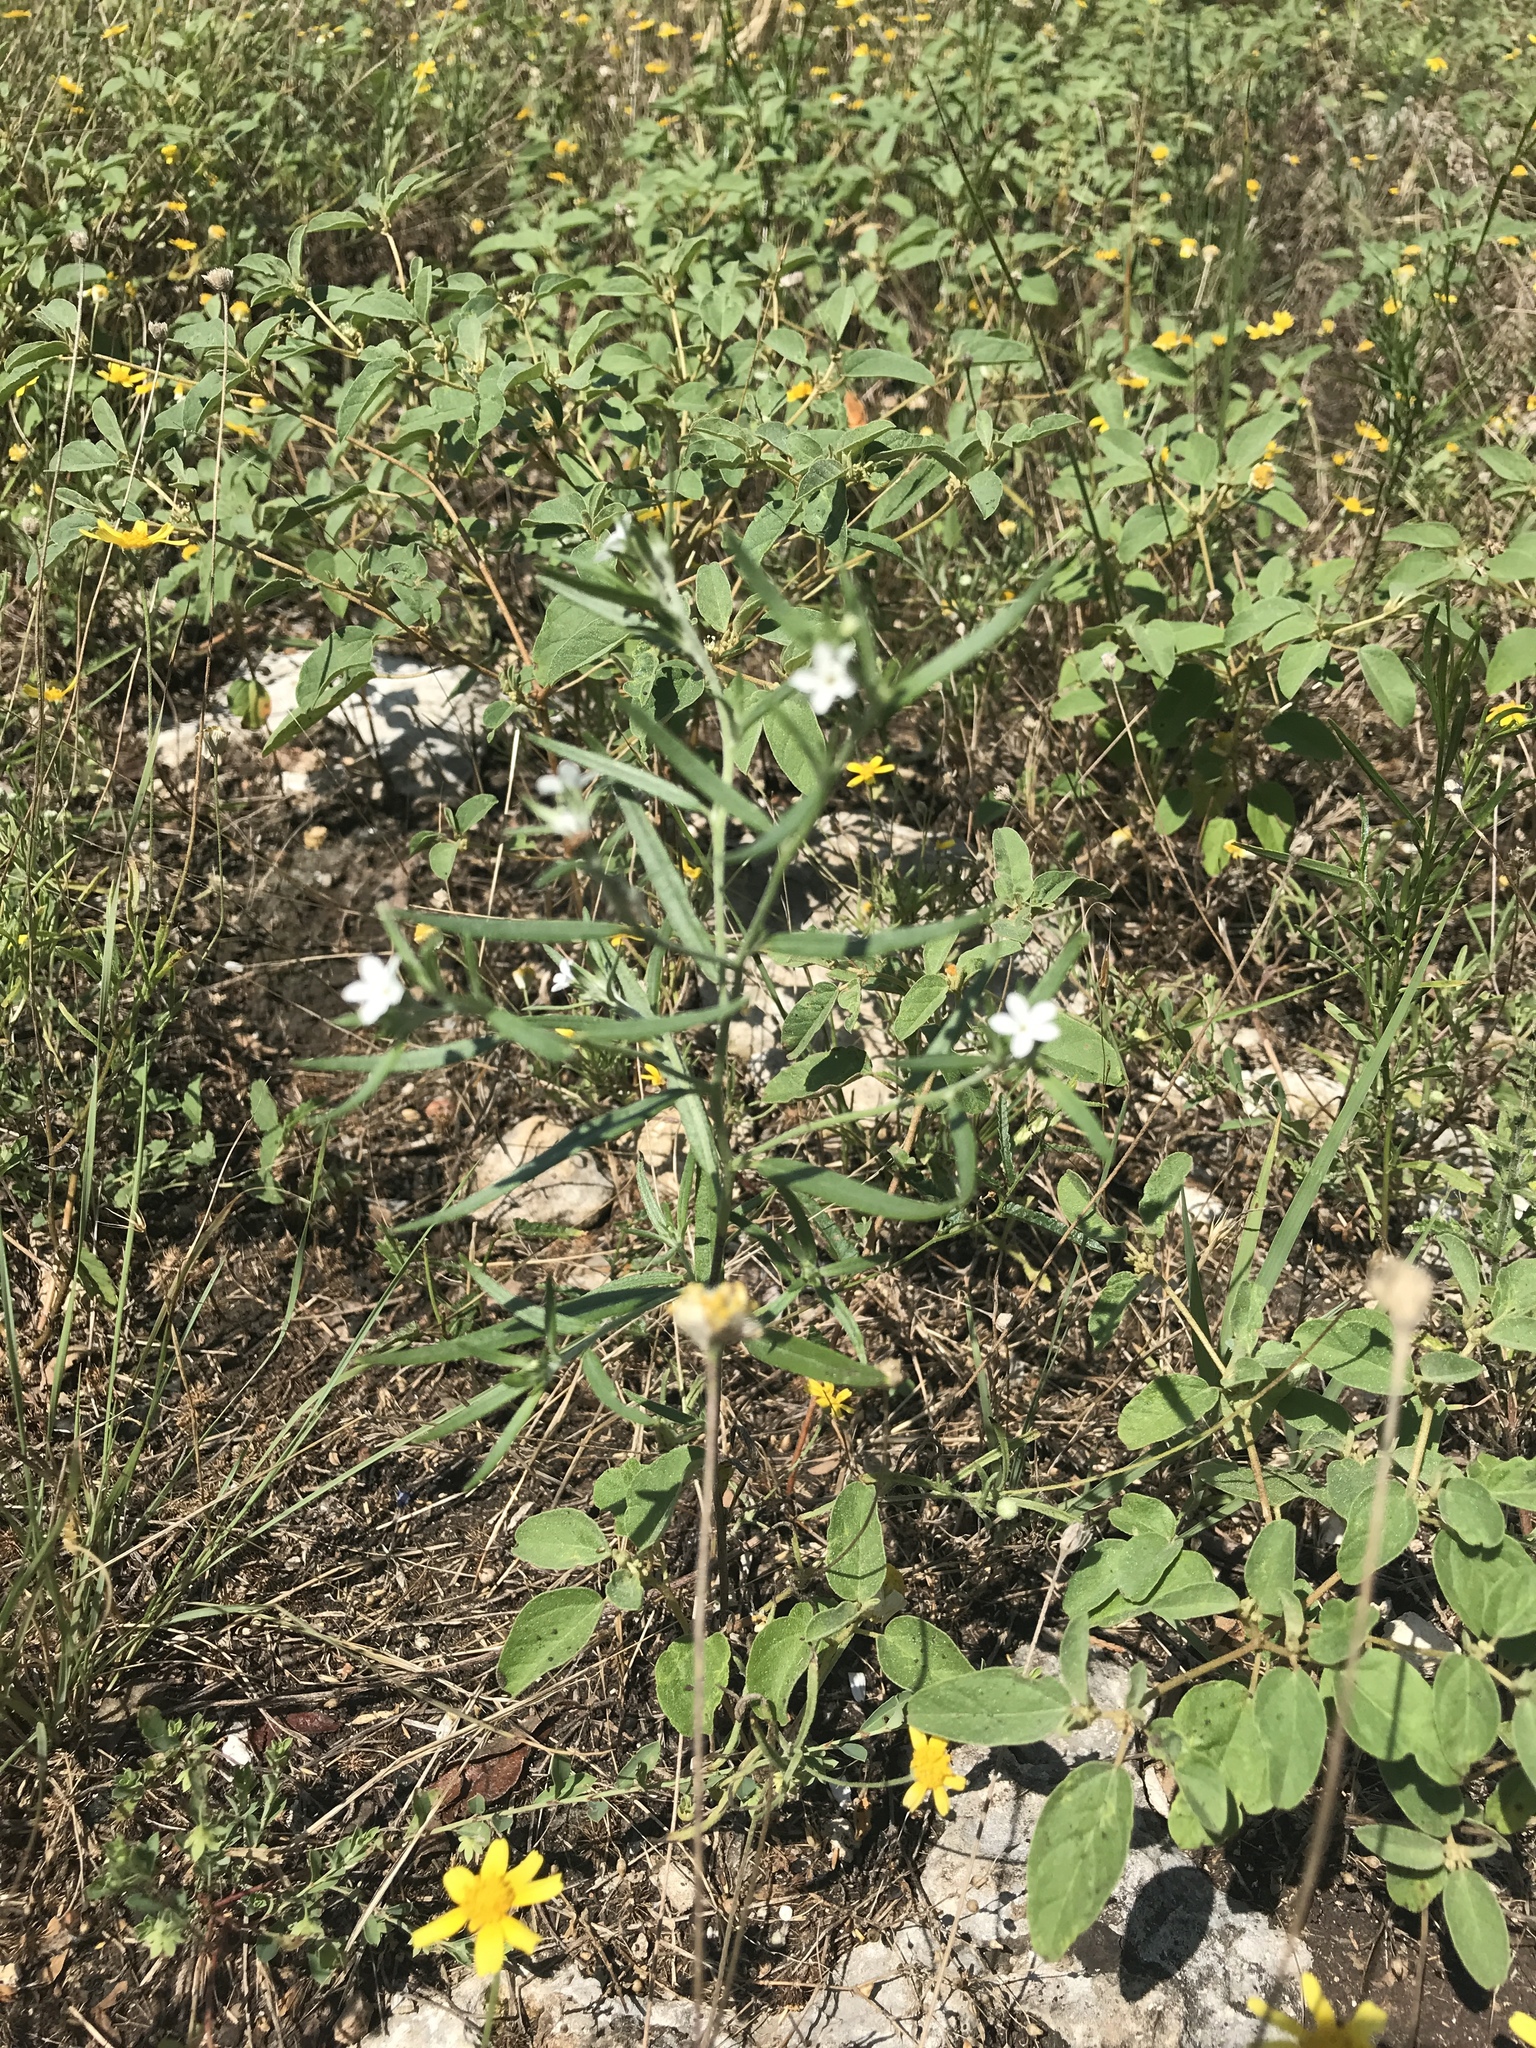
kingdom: Plantae
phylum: Tracheophyta
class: Magnoliopsida
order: Boraginales
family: Heliotropiaceae
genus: Euploca
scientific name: Euploca tenella
